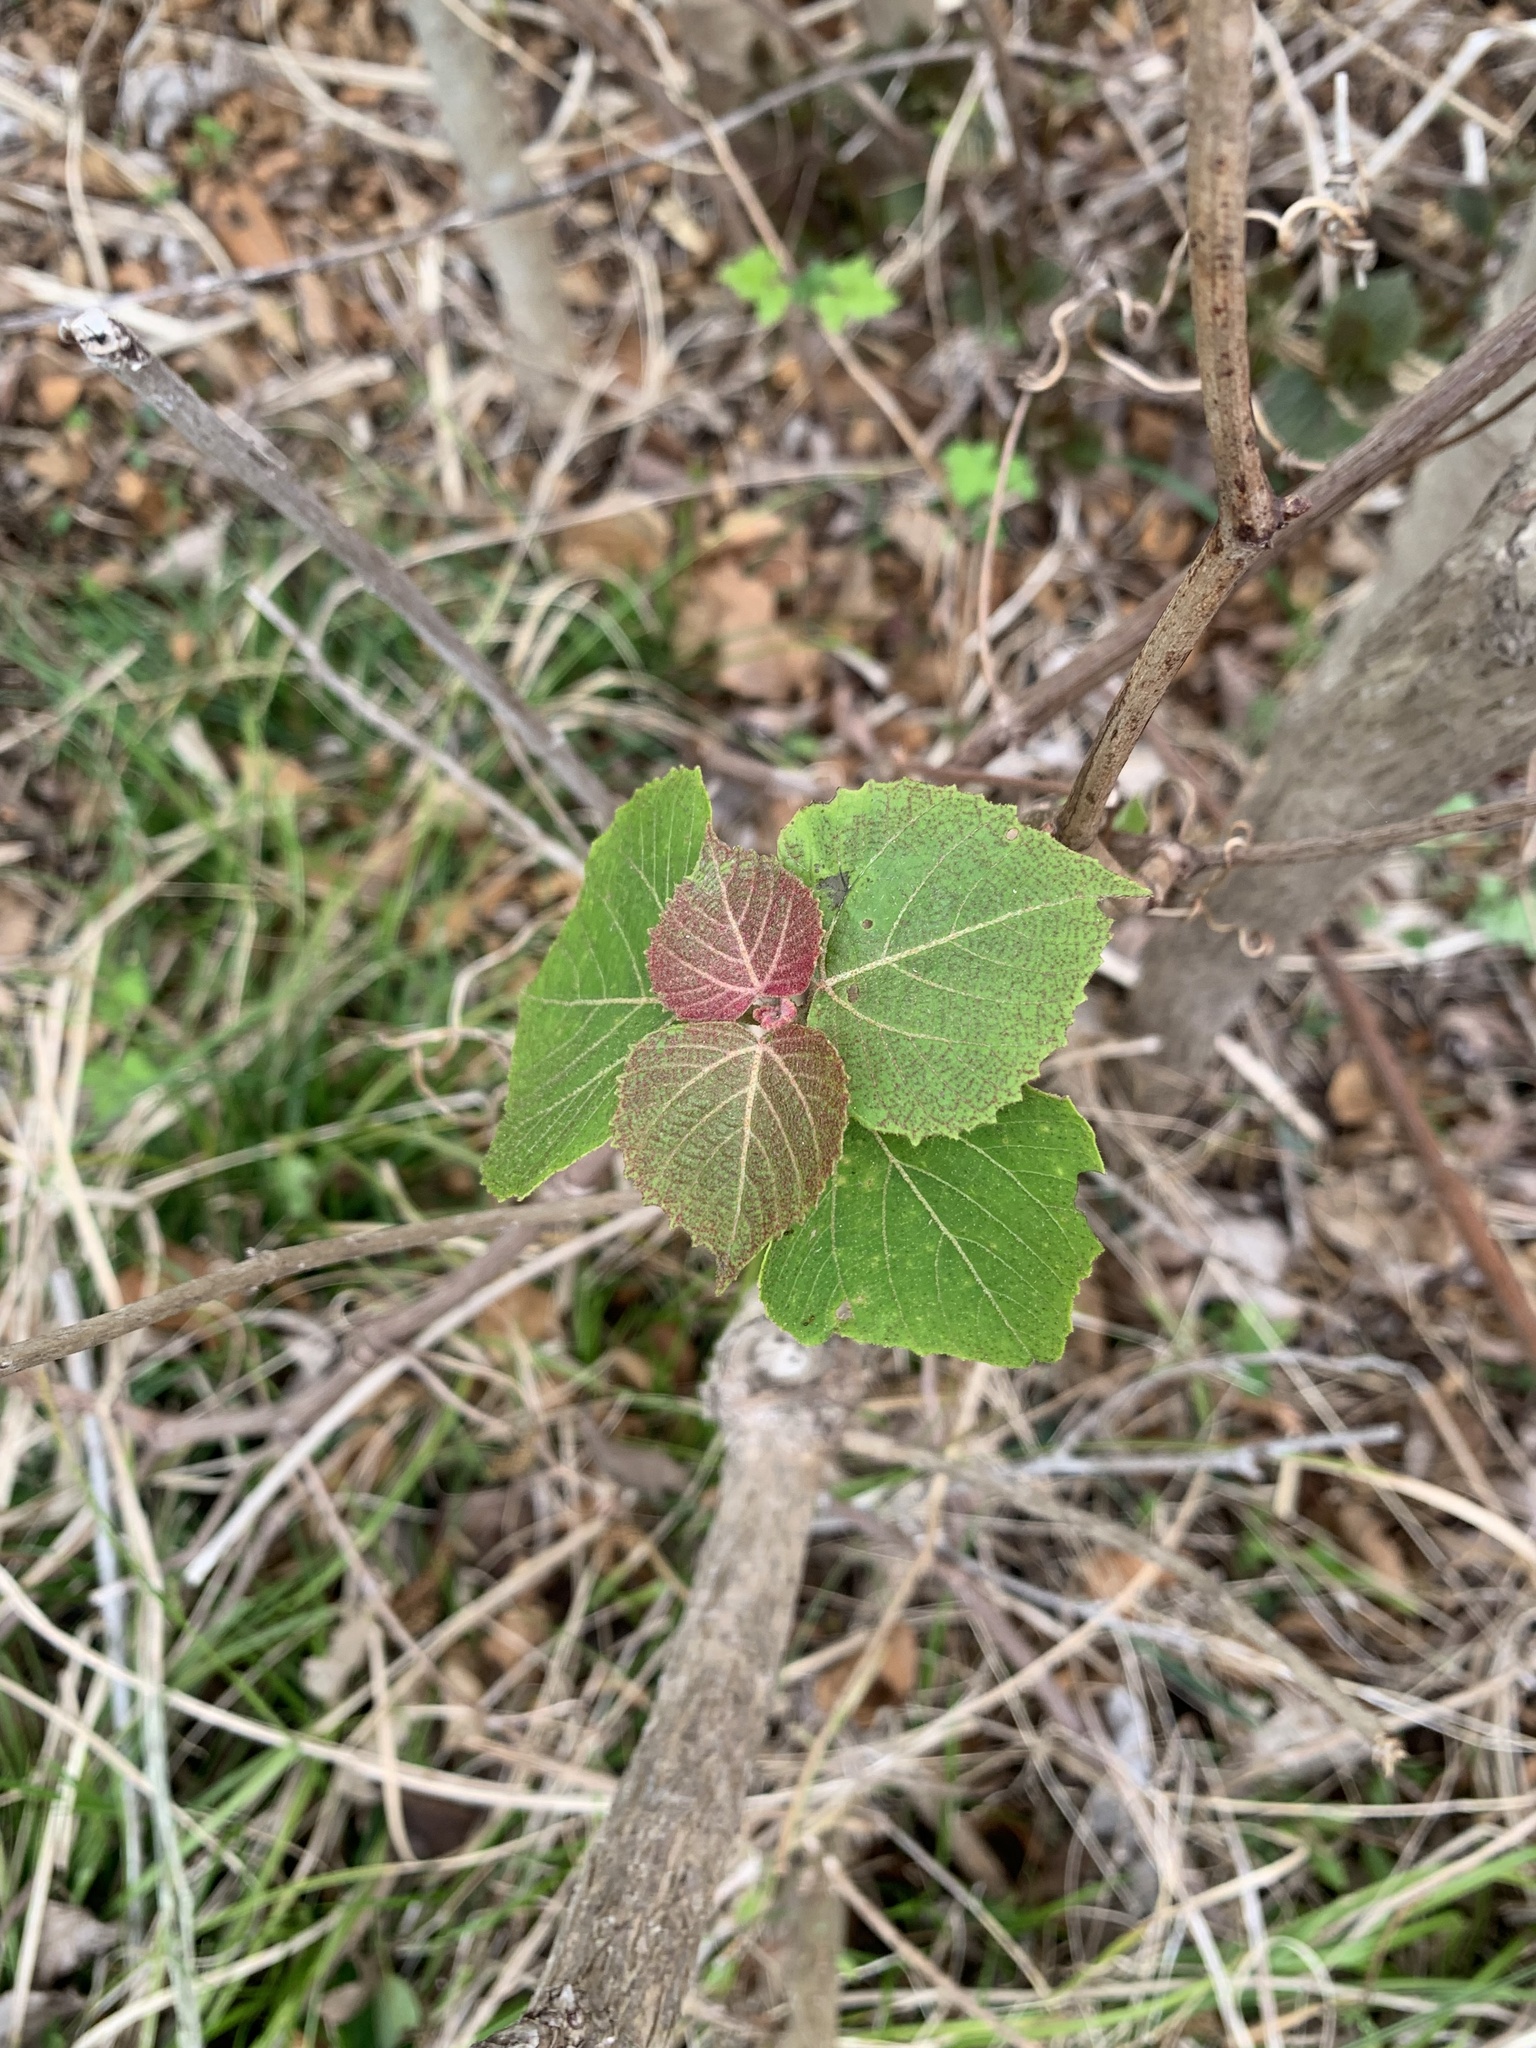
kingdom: Plantae
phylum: Tracheophyta
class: Magnoliopsida
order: Malpighiales
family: Euphorbiaceae
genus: Mallotus
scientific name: Mallotus japonicus
